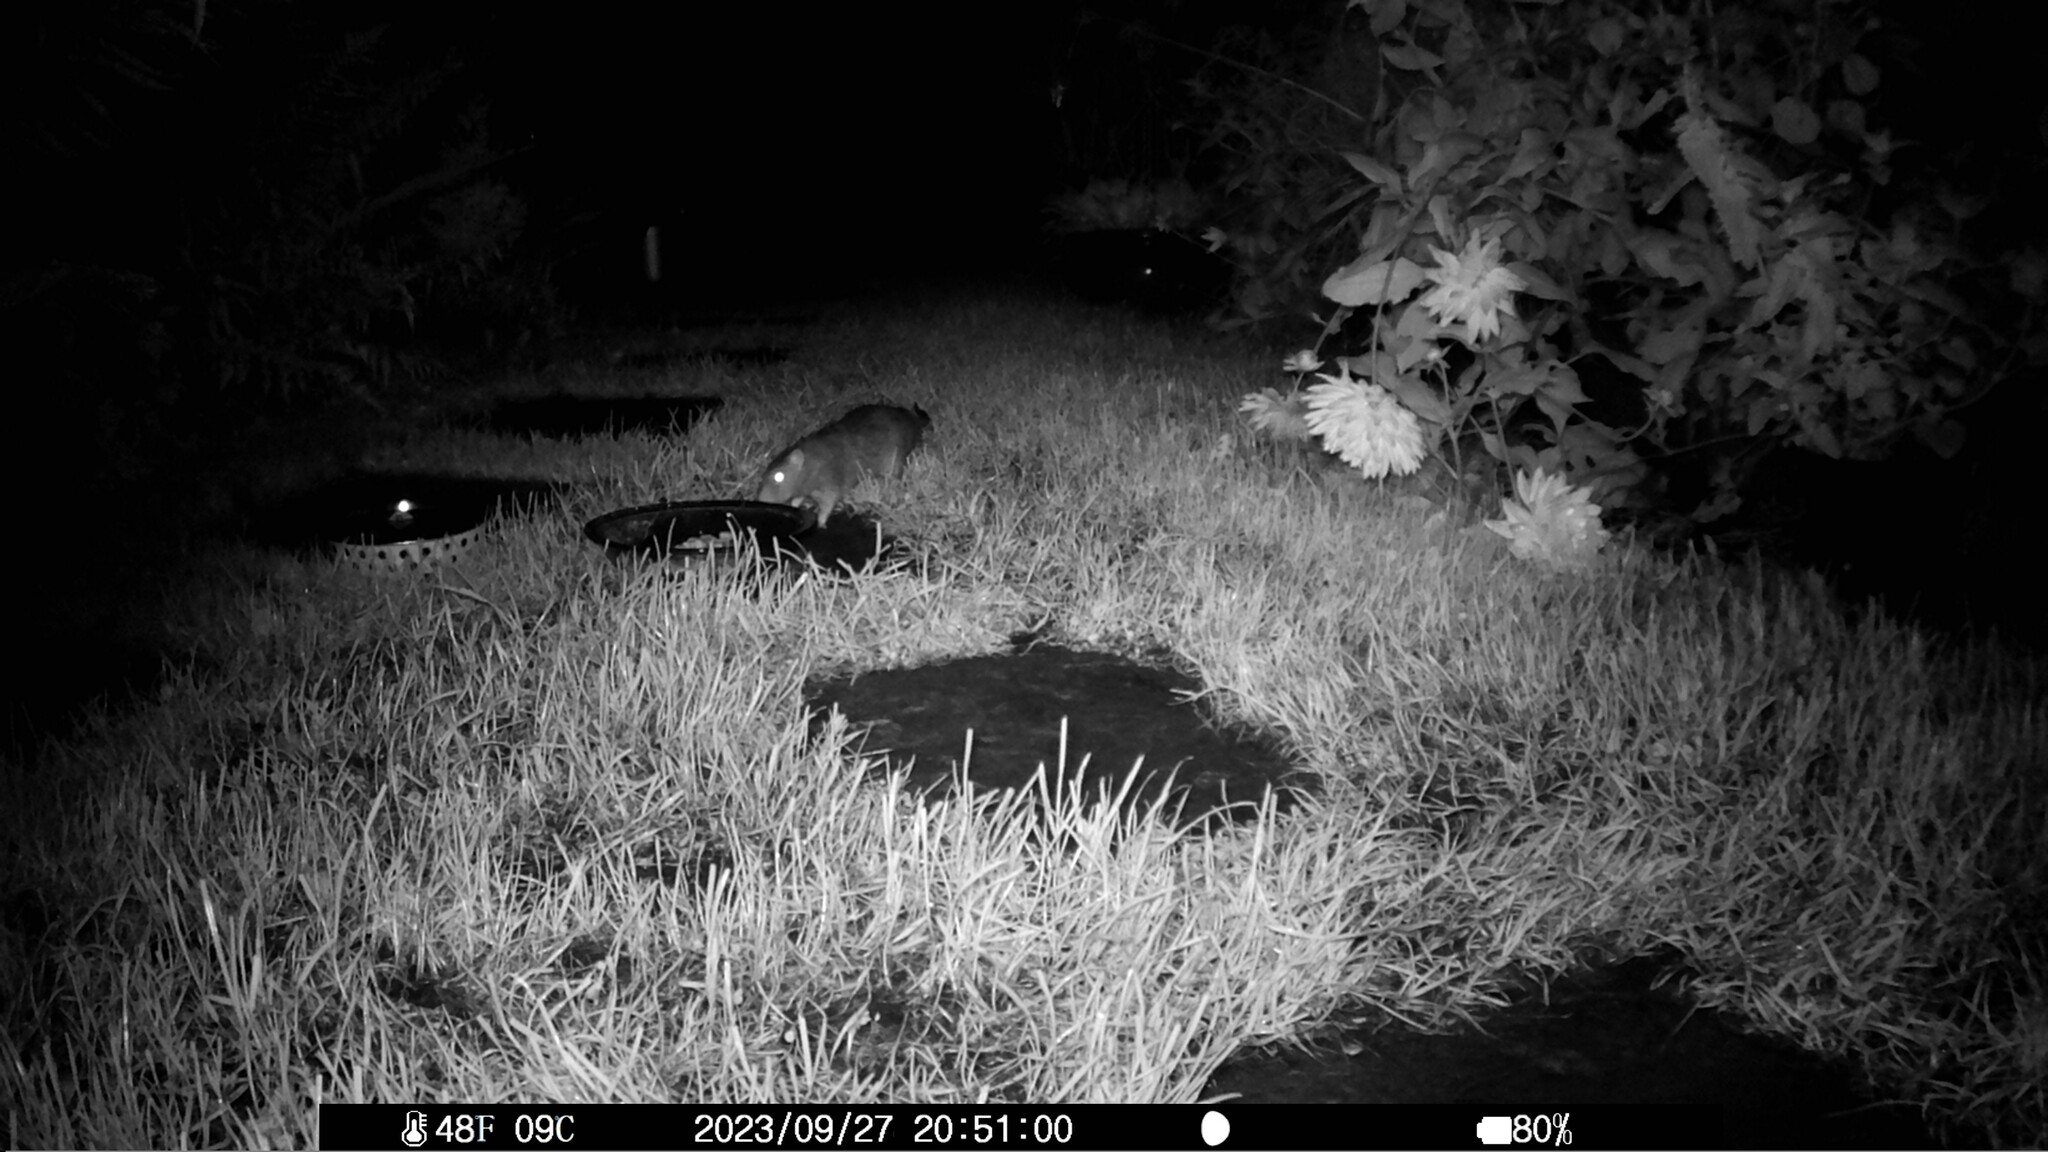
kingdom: Animalia
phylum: Chordata
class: Mammalia
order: Rodentia
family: Muridae
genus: Rattus
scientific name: Rattus norvegicus
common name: Brown rat
